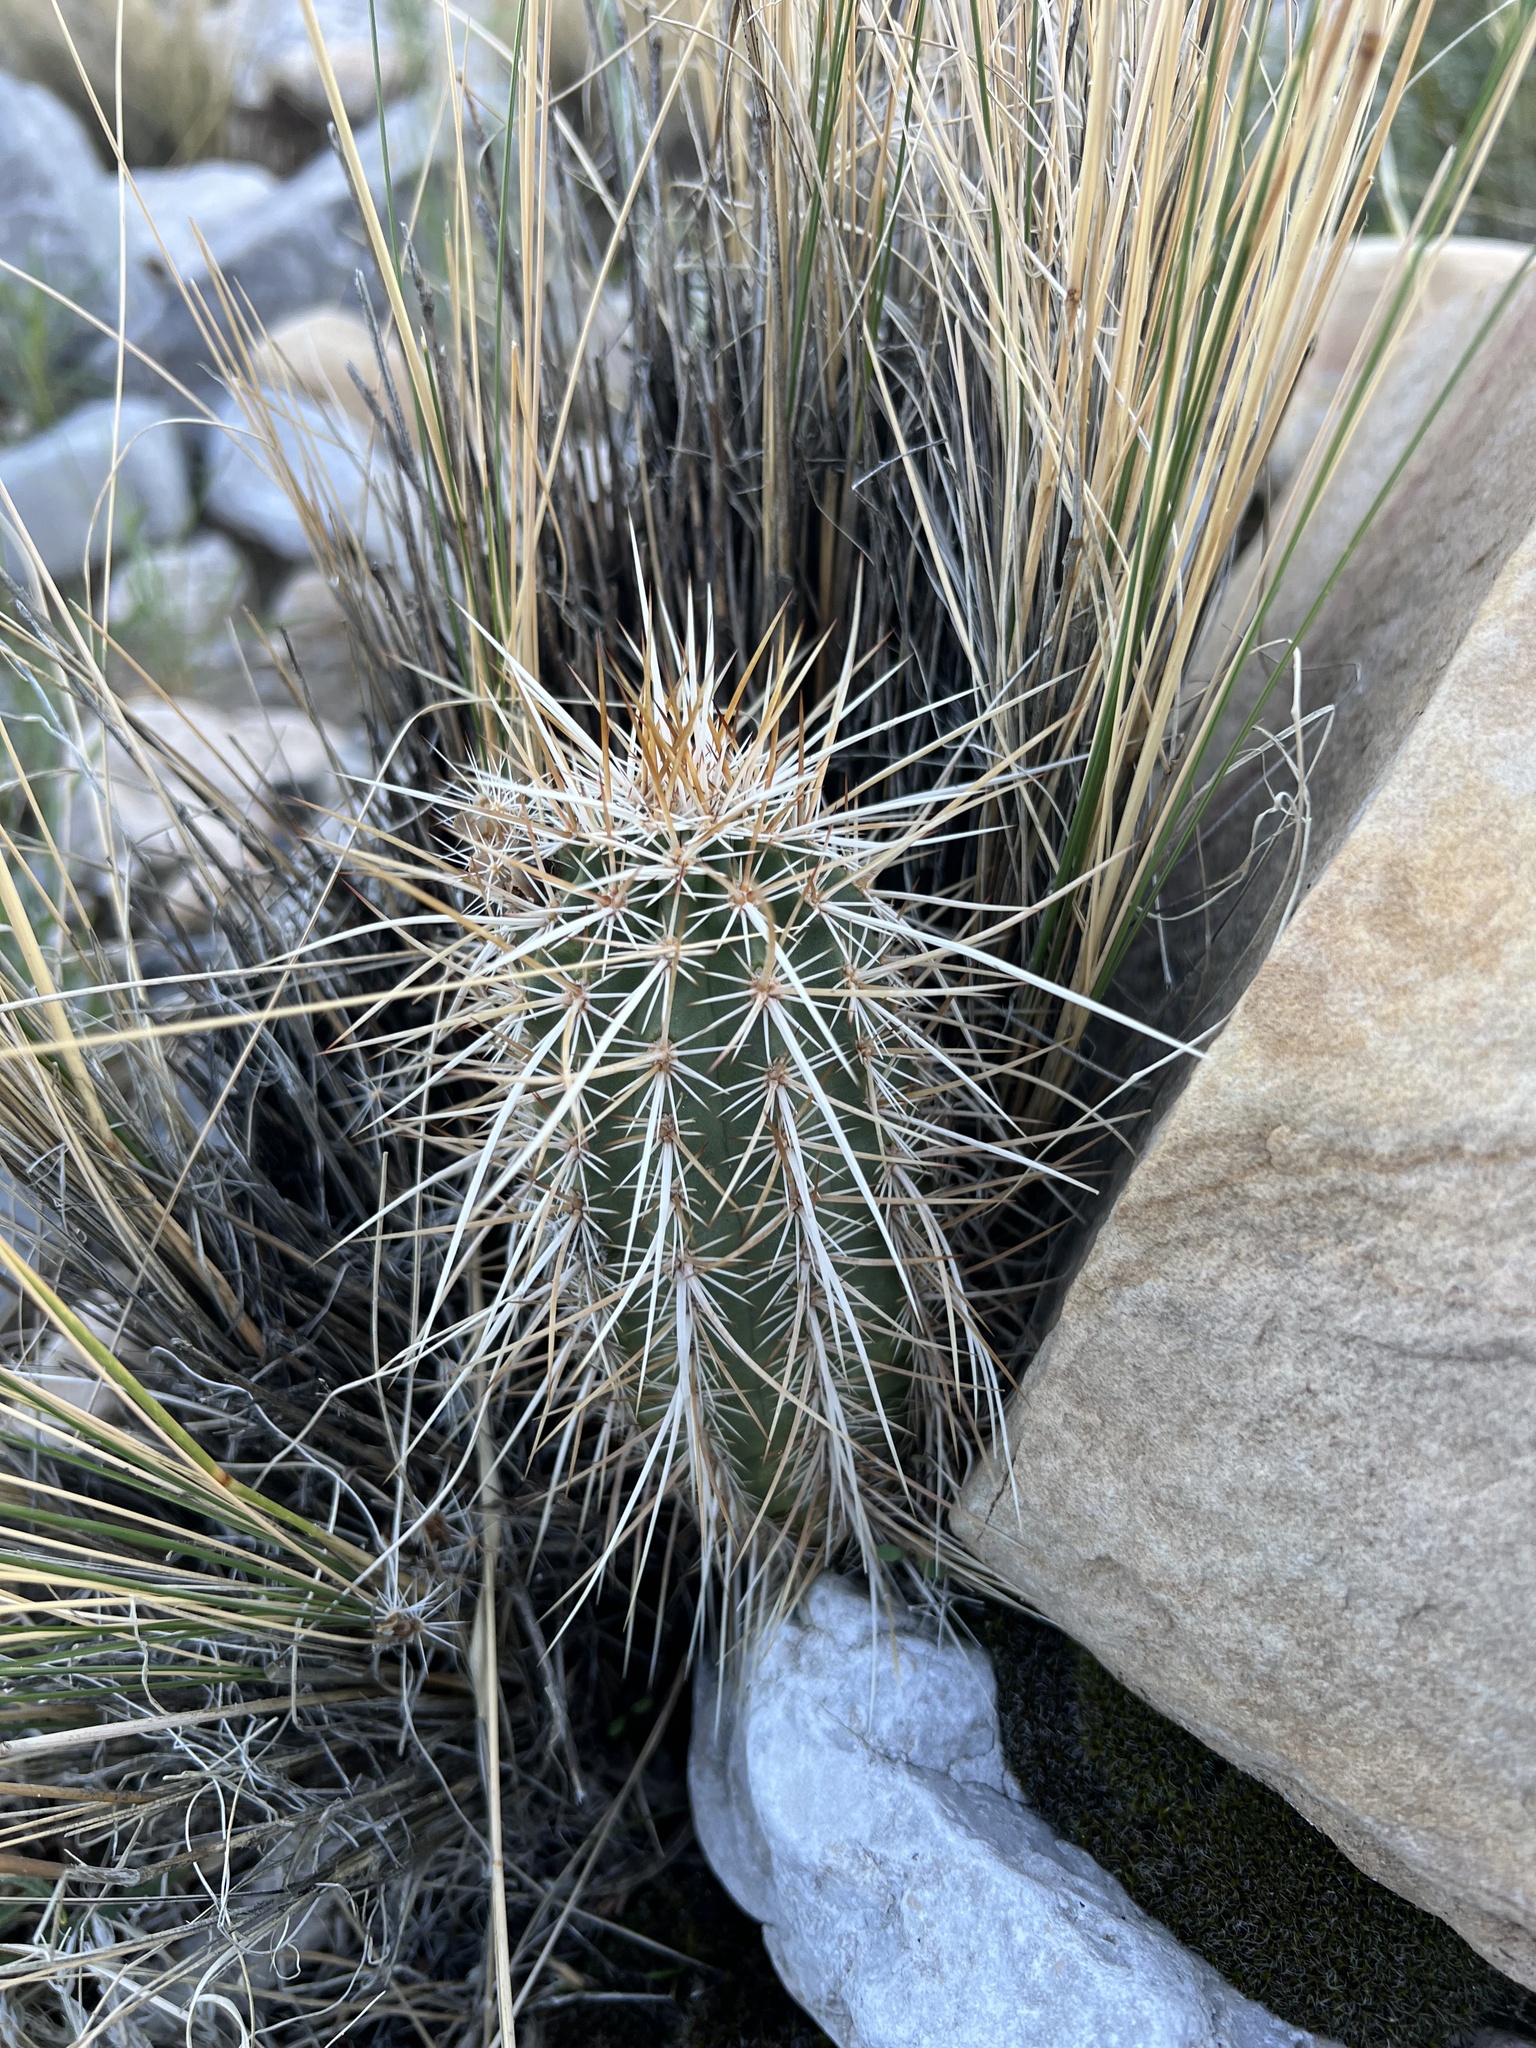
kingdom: Plantae
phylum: Tracheophyta
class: Magnoliopsida
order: Caryophyllales
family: Cactaceae
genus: Echinocereus
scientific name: Echinocereus engelmannii
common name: Engelmann's hedgehog cactus
